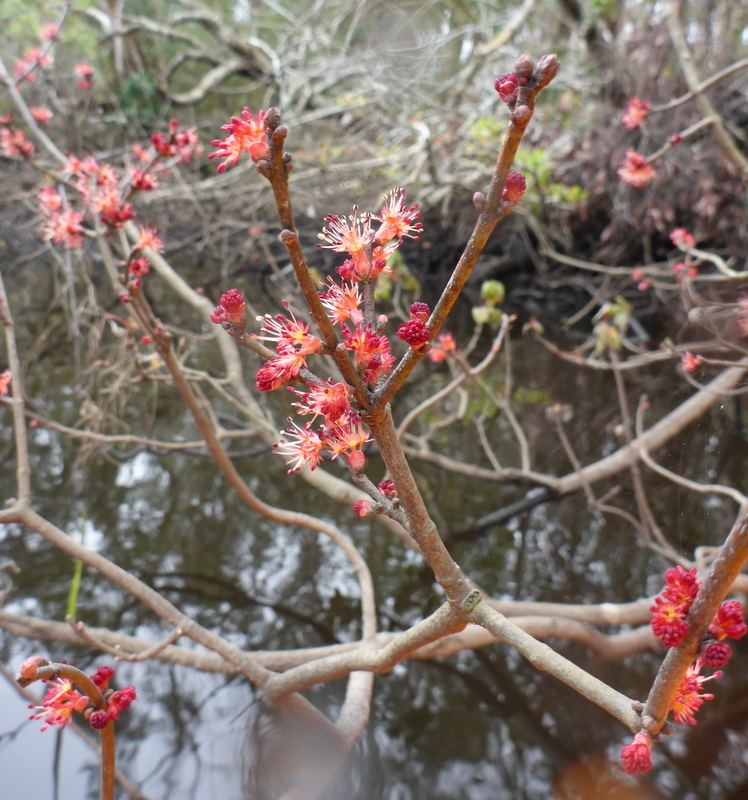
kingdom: Plantae
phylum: Tracheophyta
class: Magnoliopsida
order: Sapindales
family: Sapindaceae
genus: Acer
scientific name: Acer rubrum
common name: Red maple
